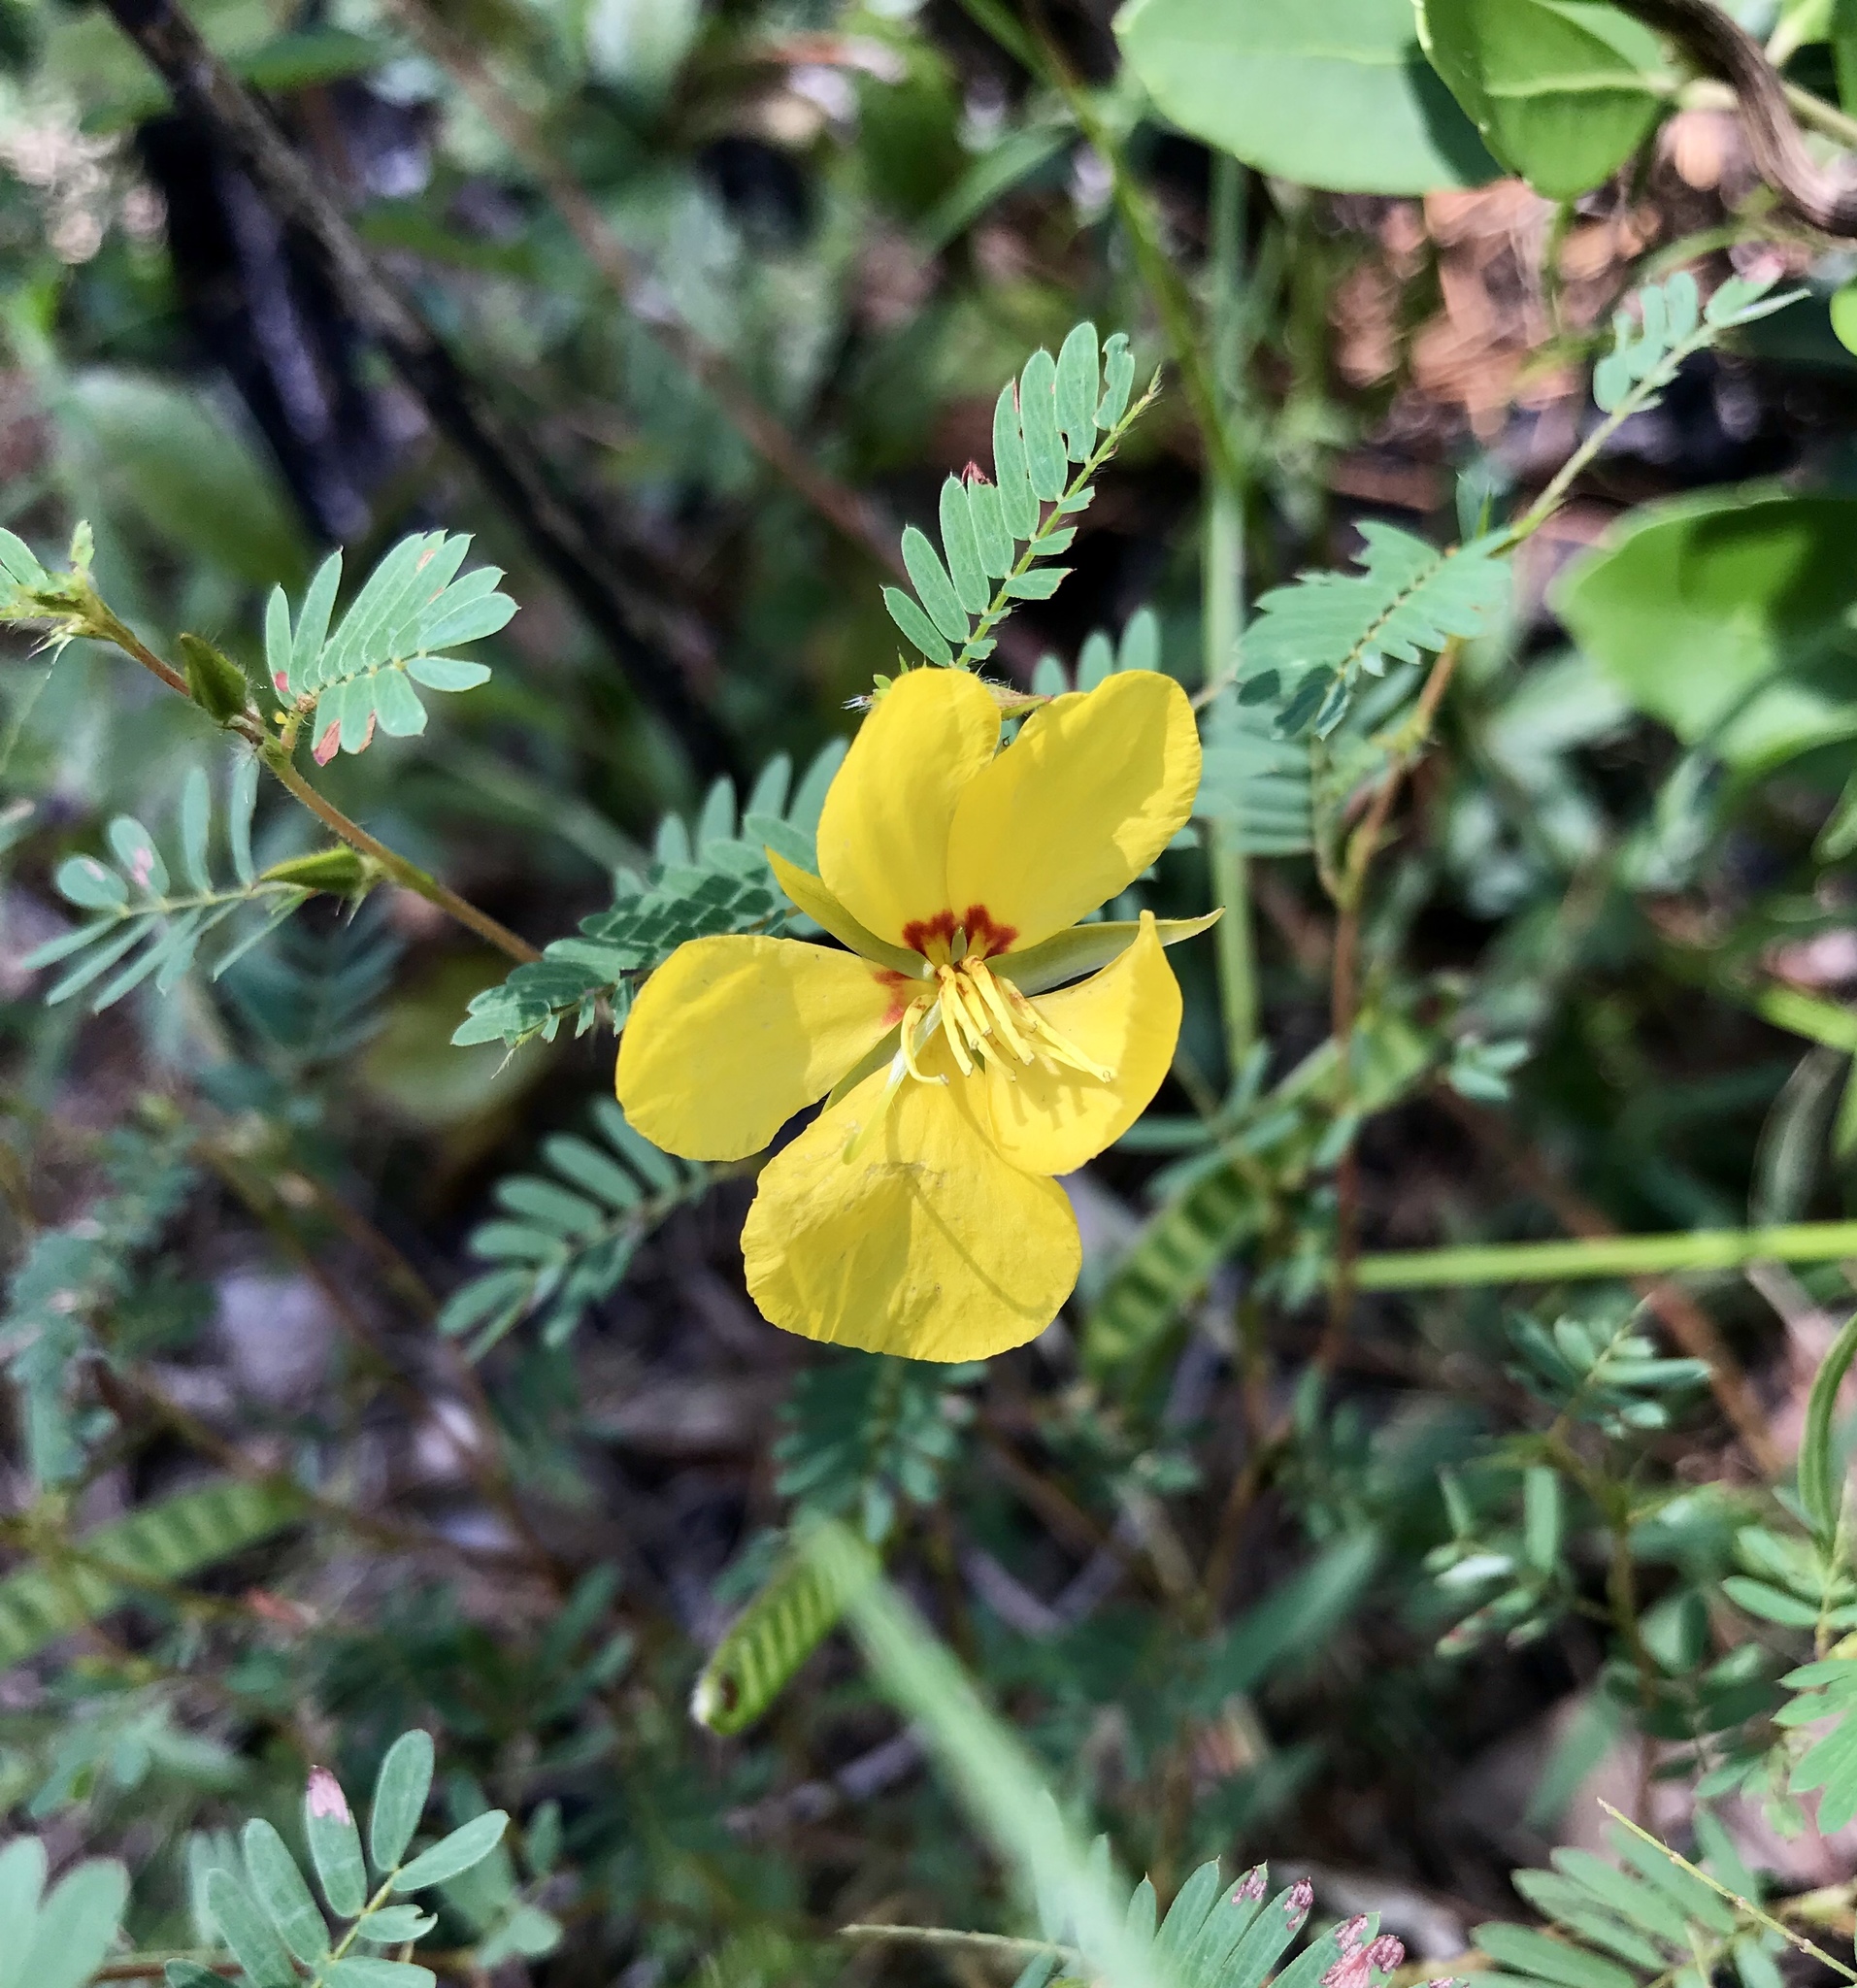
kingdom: Plantae
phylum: Tracheophyta
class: Magnoliopsida
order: Fabales
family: Fabaceae
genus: Chamaecrista
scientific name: Chamaecrista fasciculata
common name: Golden cassia
